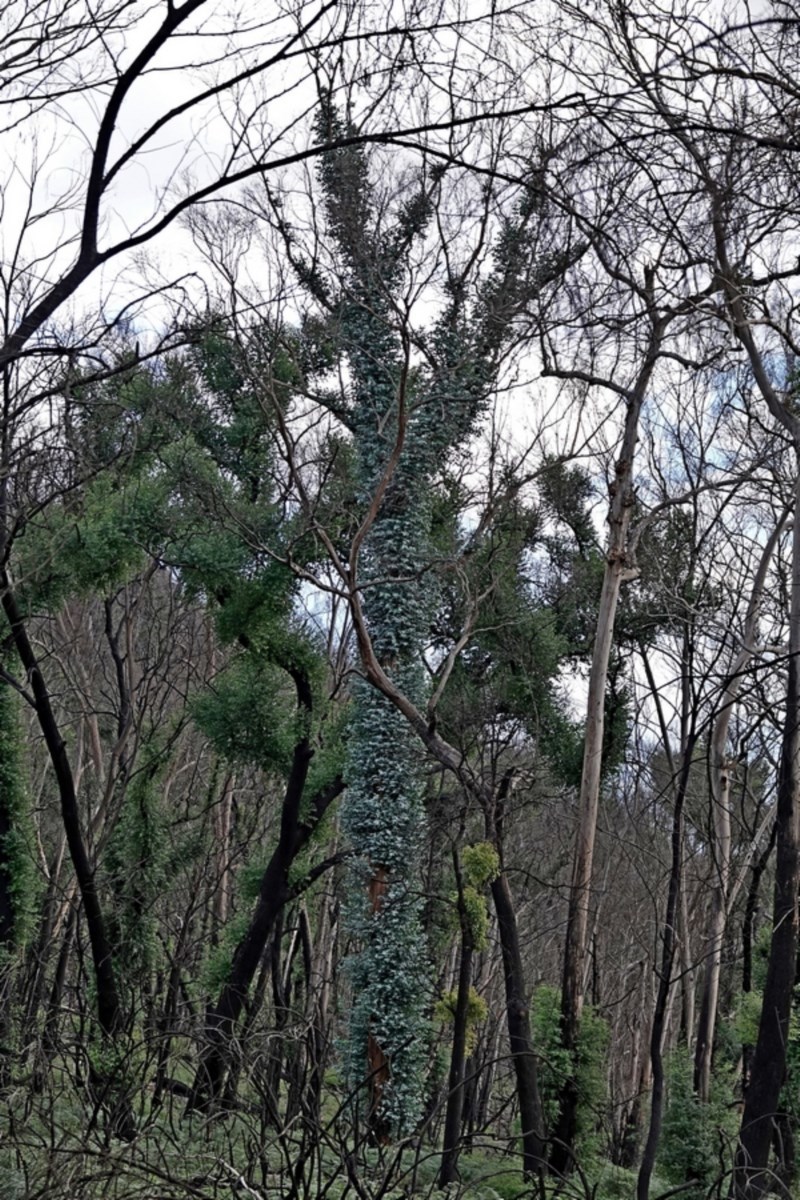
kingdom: Plantae
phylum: Tracheophyta
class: Magnoliopsida
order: Myrtales
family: Myrtaceae
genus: Eucalyptus
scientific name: Eucalyptus globulus
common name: Southern blue-gum
